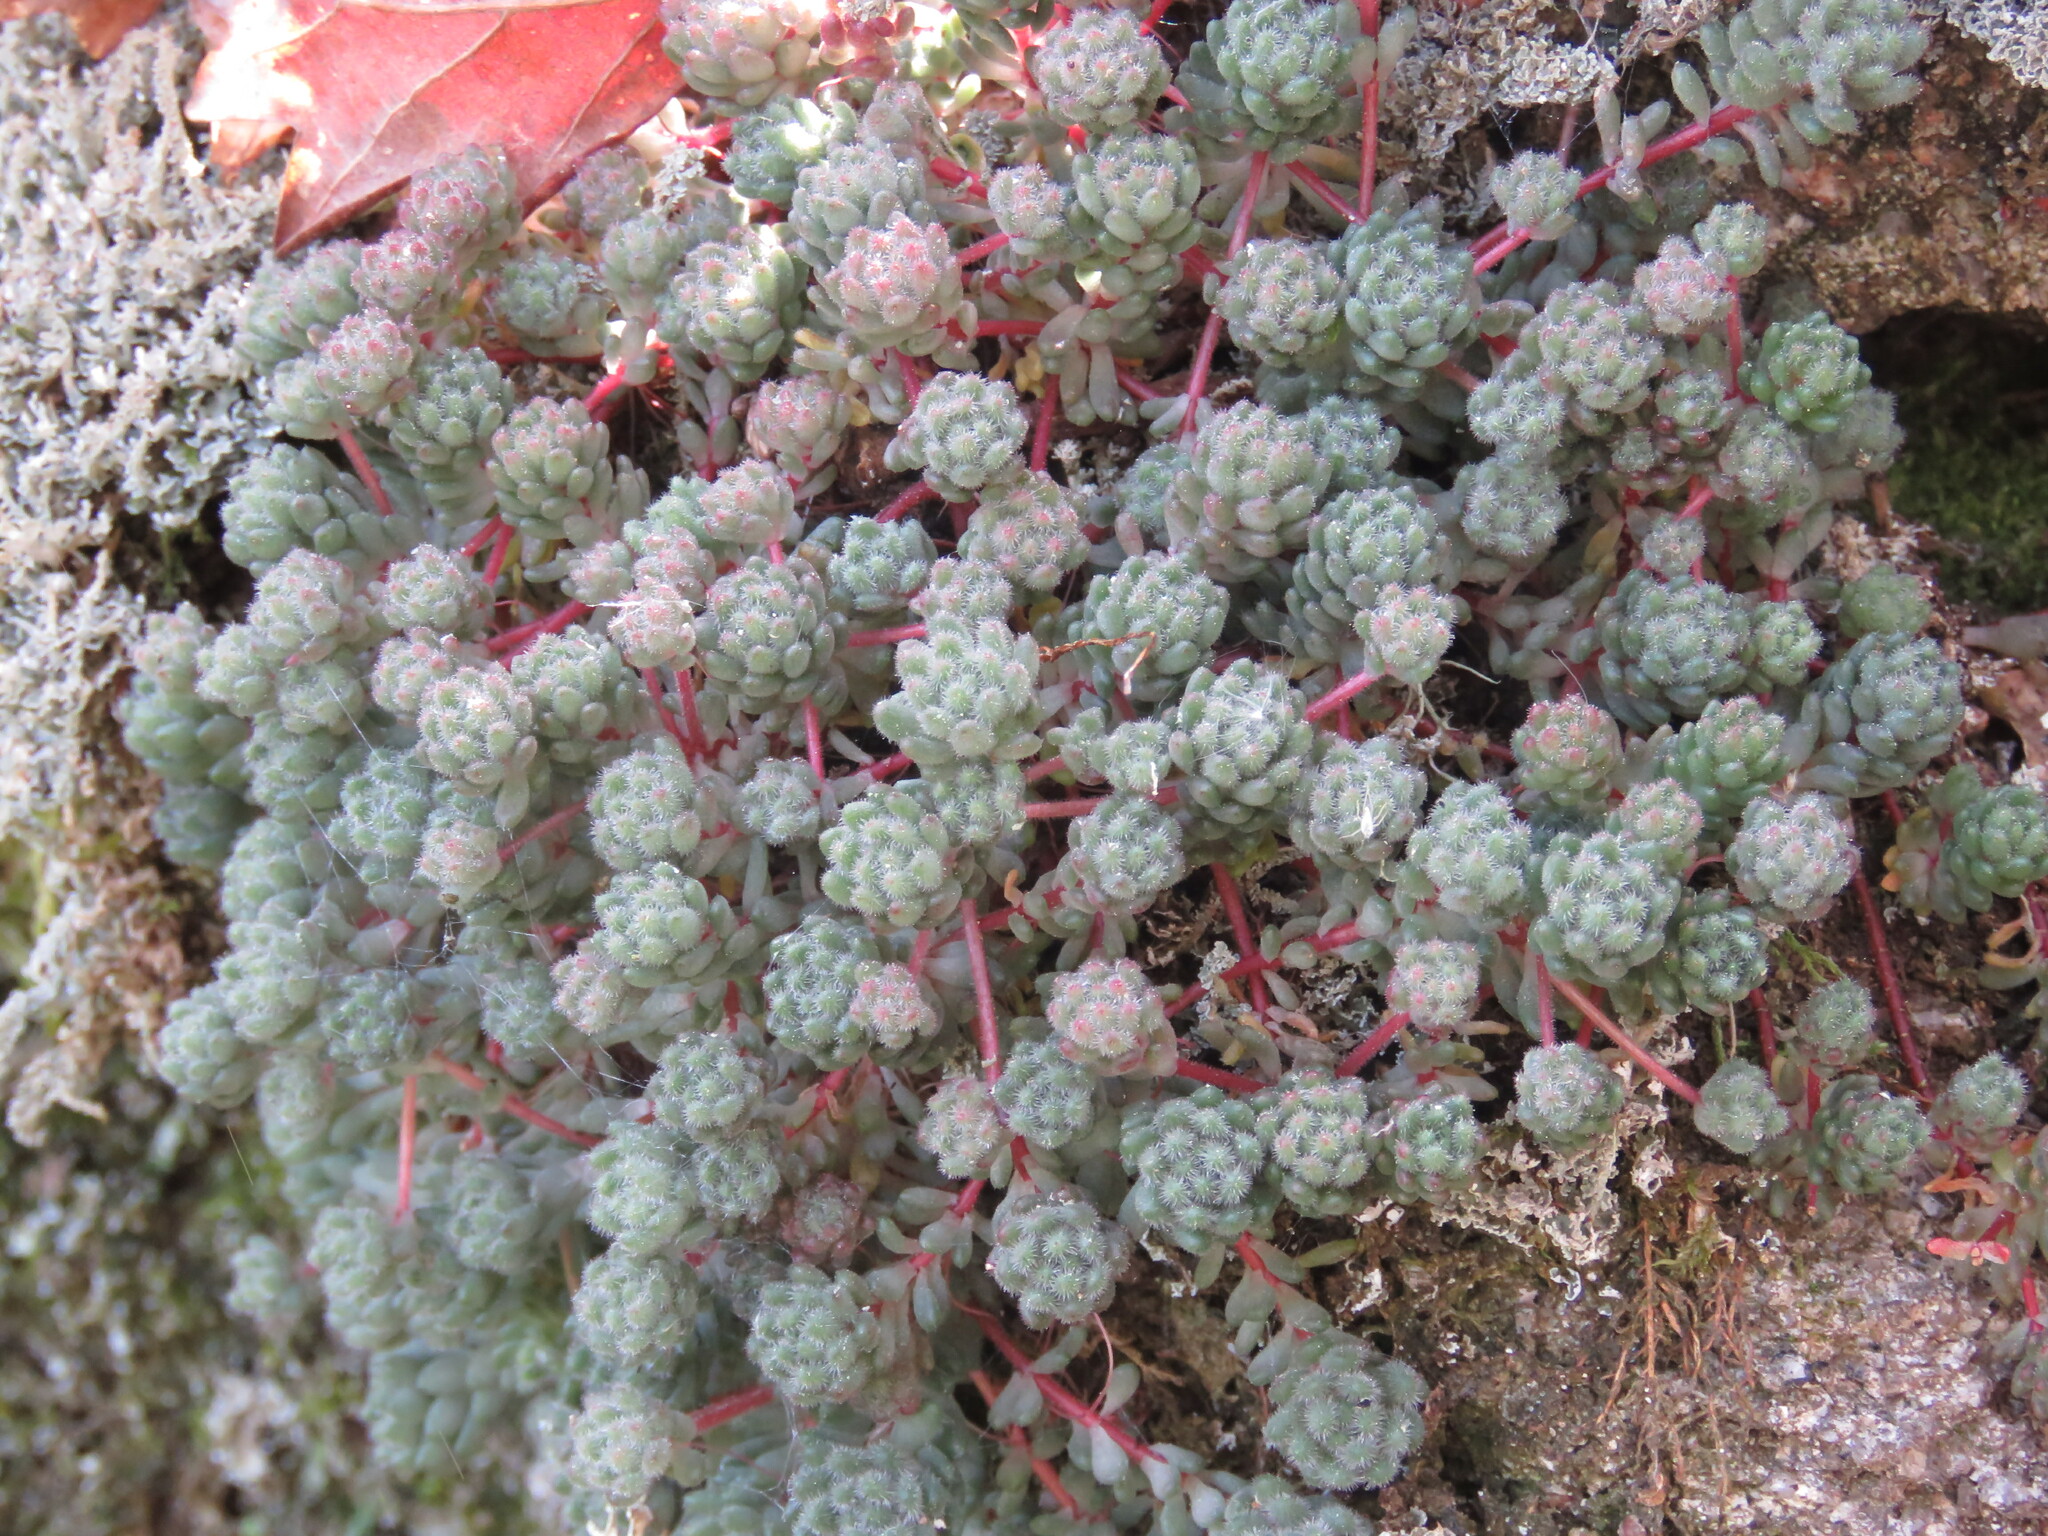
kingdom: Plantae
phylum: Tracheophyta
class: Magnoliopsida
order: Saxifragales
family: Crassulaceae
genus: Sedum
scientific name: Sedum hirsutum
